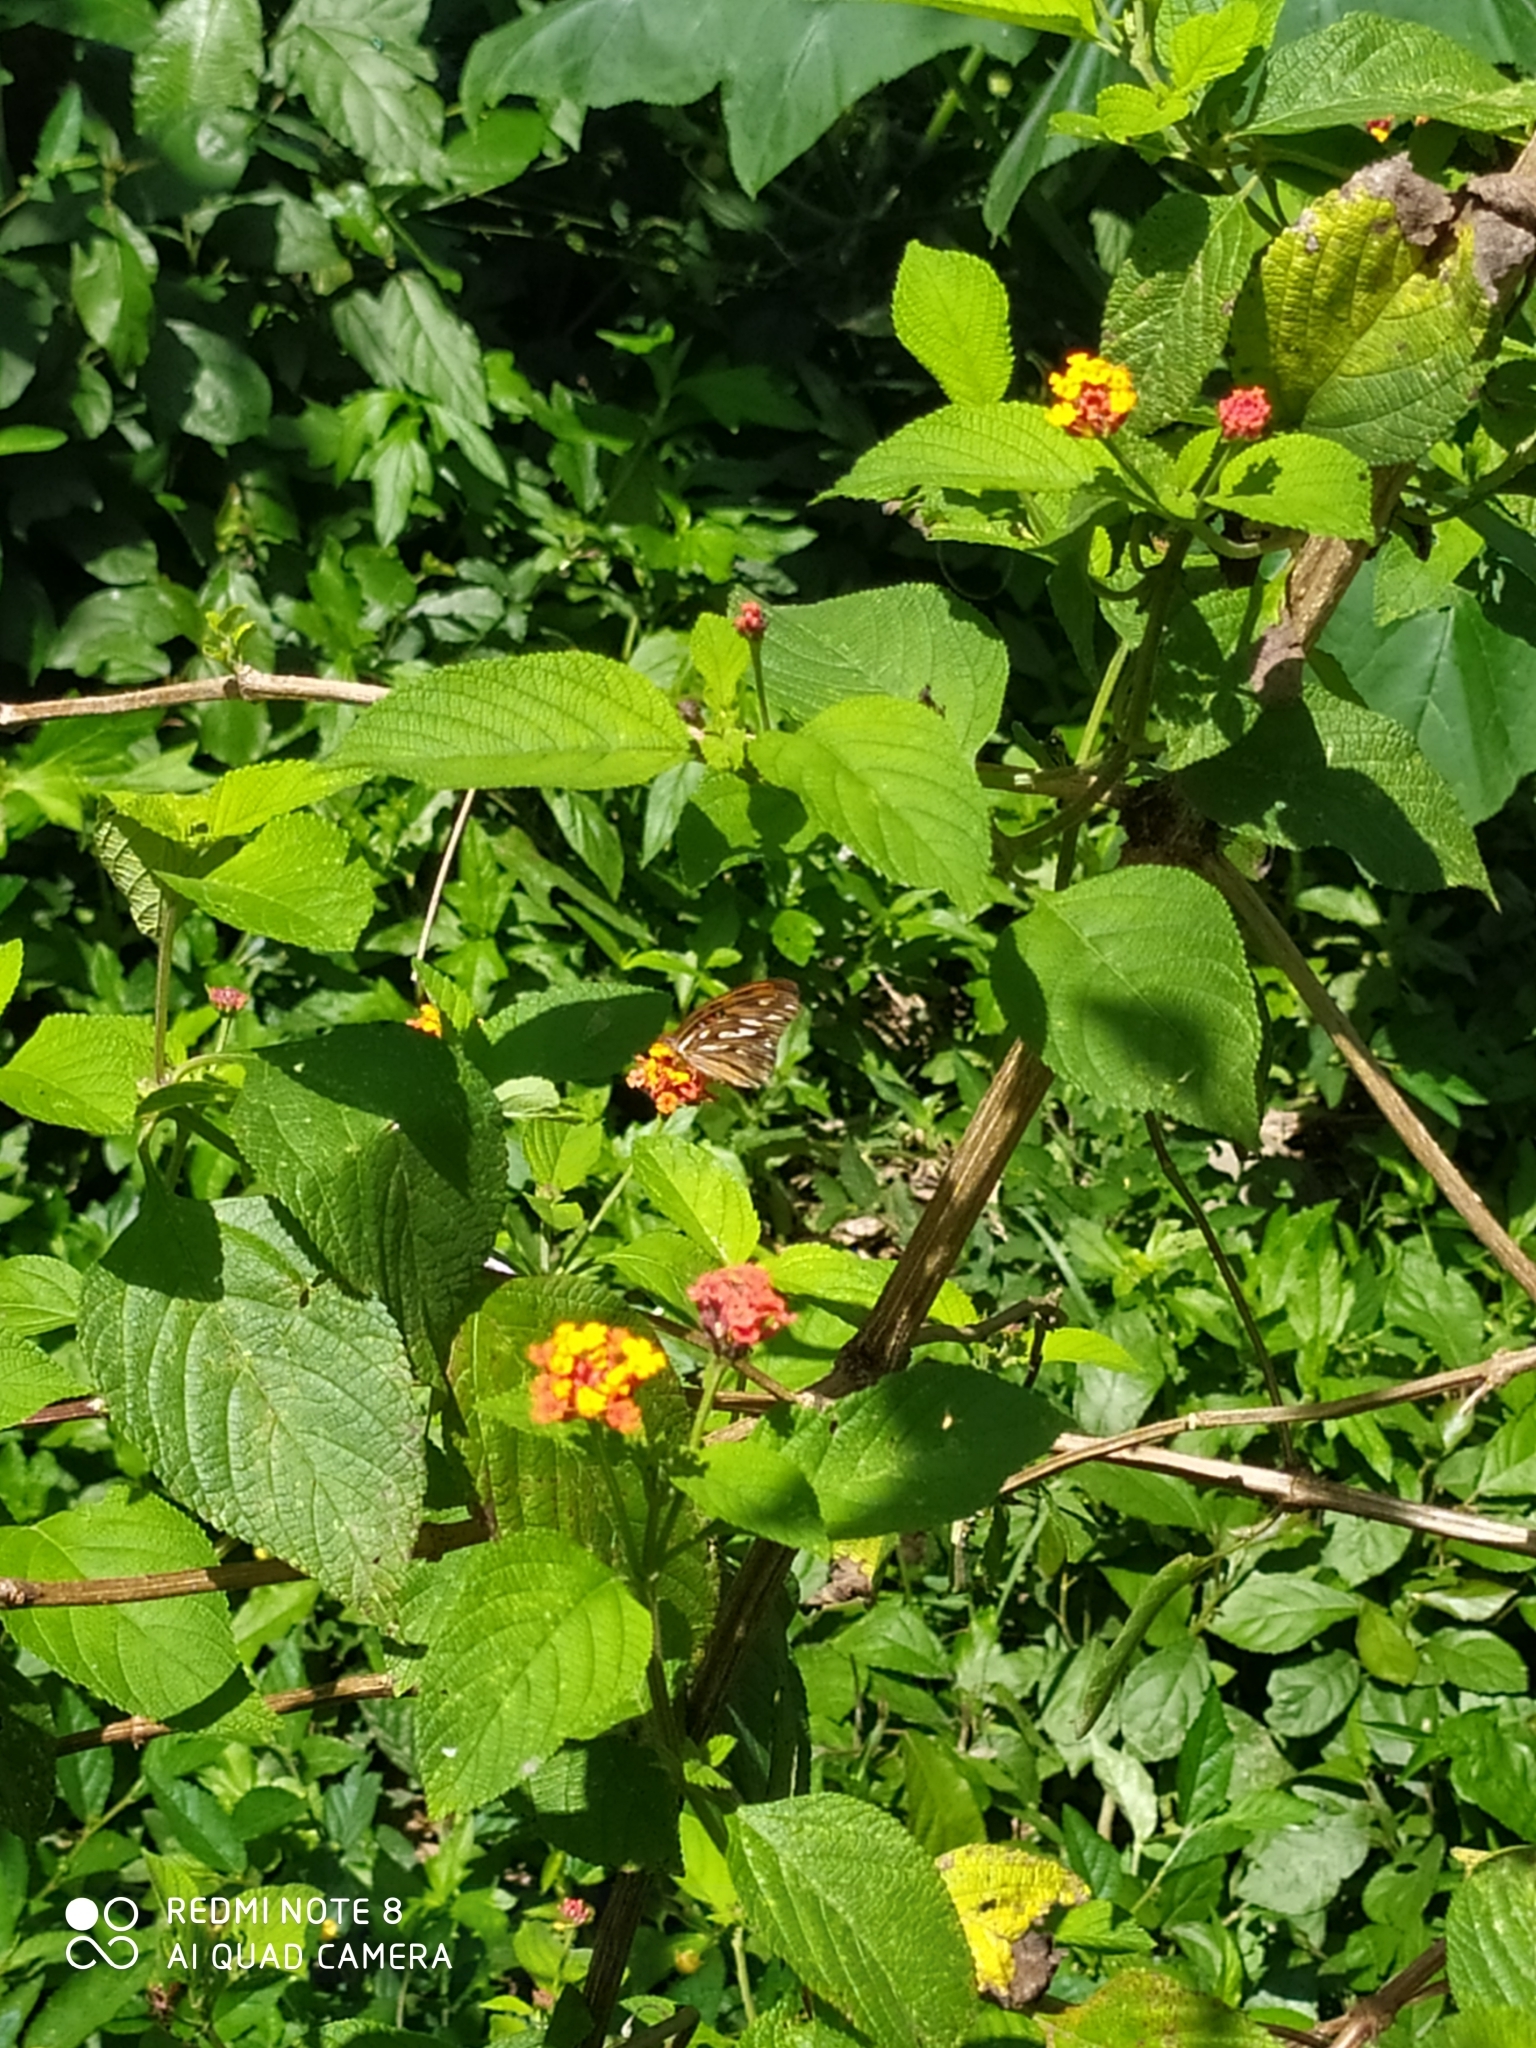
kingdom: Animalia
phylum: Arthropoda
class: Insecta
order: Lepidoptera
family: Nymphalidae
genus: Dione
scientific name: Dione vanillae
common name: Gulf fritillary
